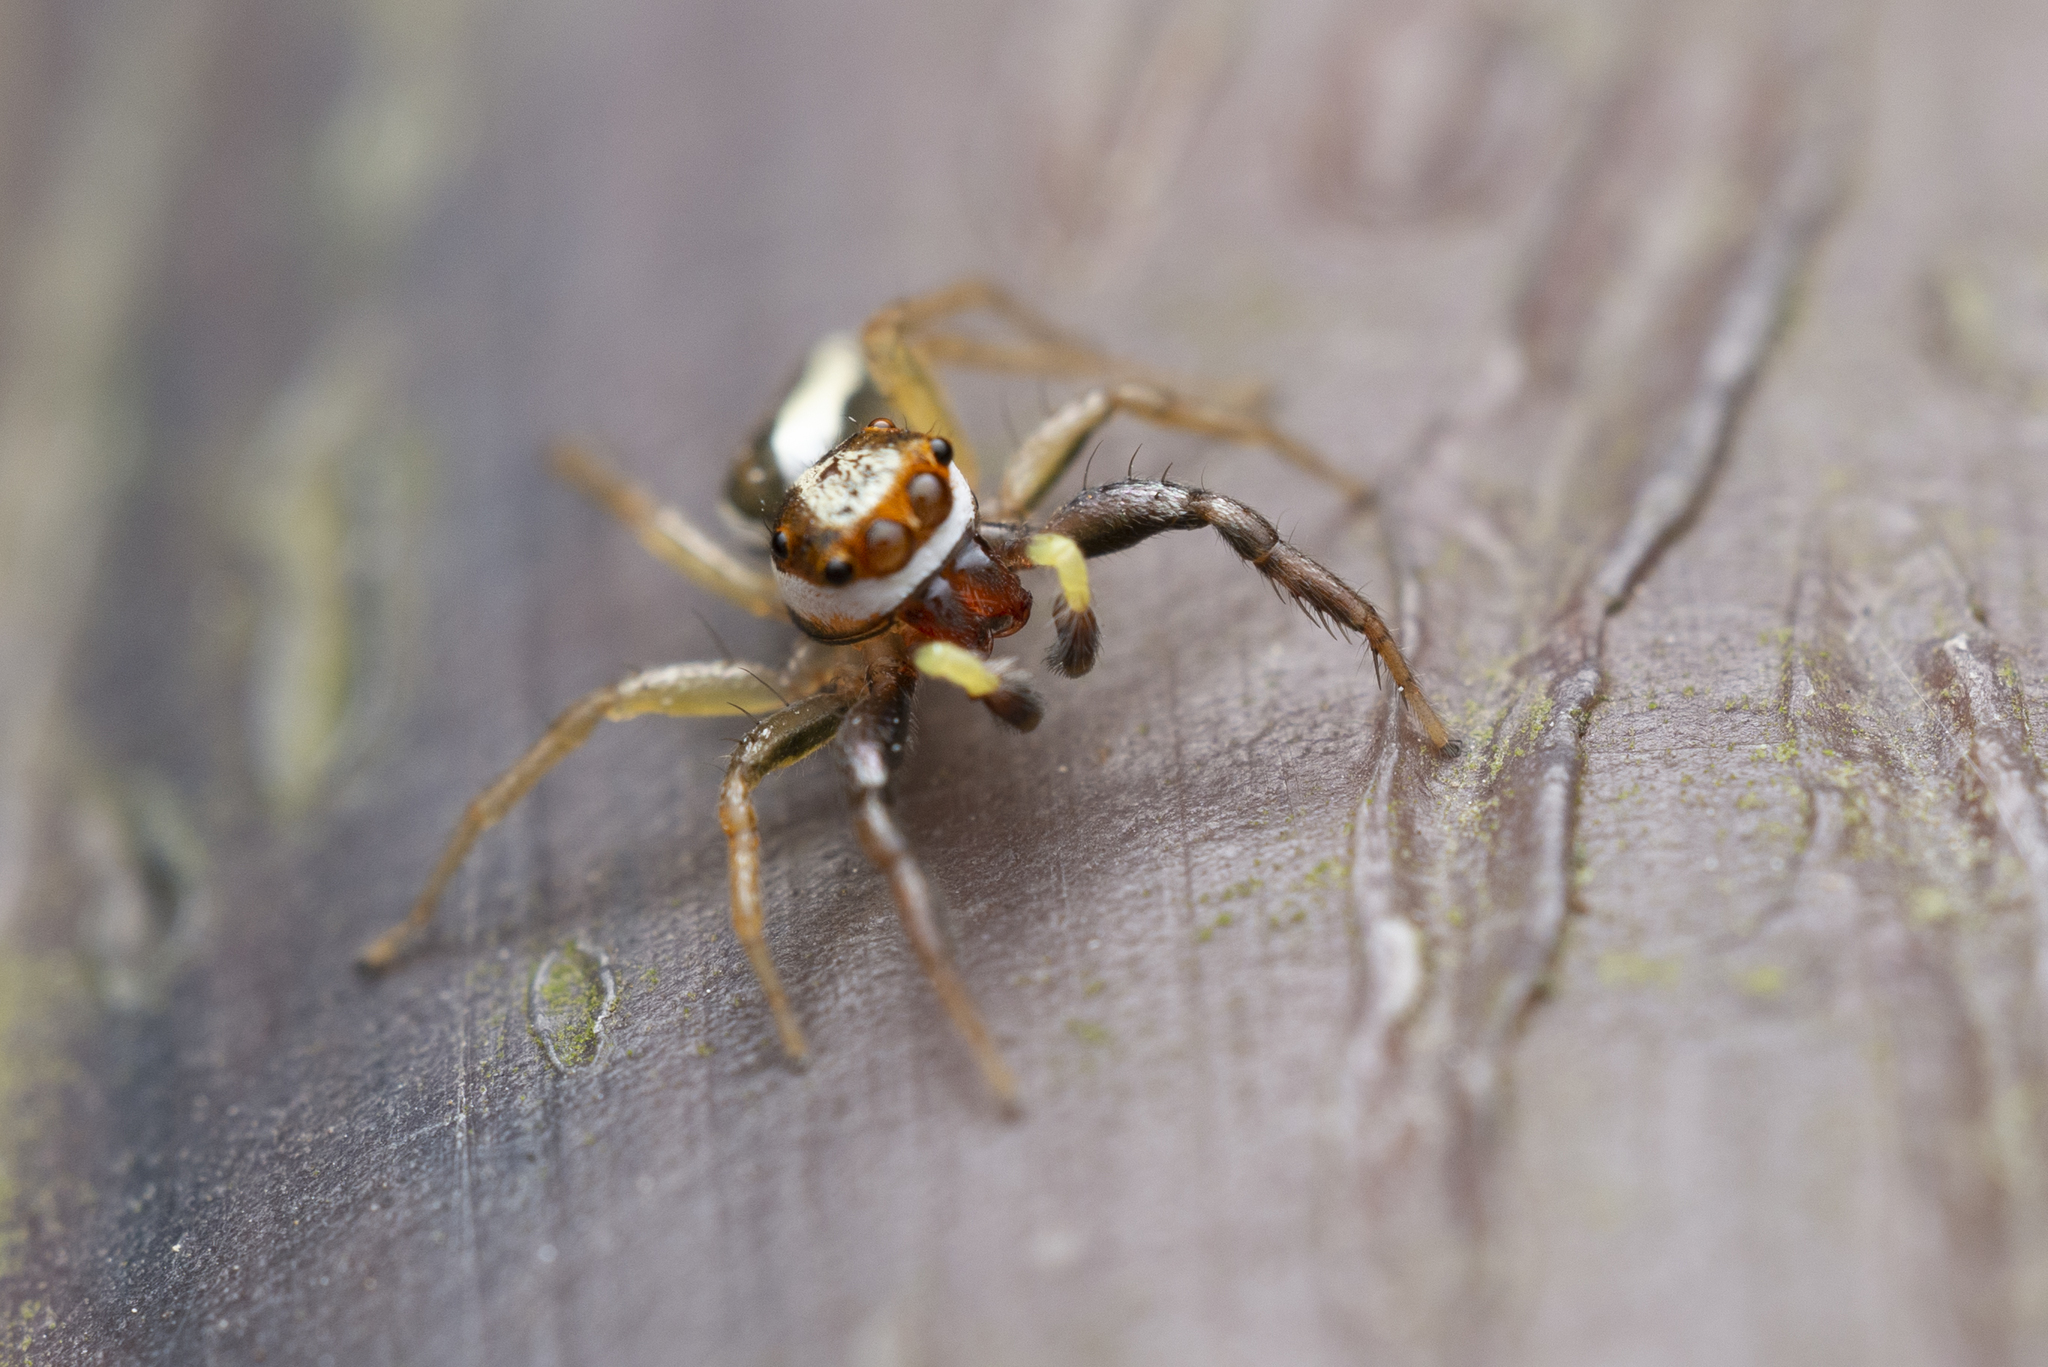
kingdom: Animalia
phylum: Arthropoda
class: Arachnida
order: Araneae
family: Salticidae
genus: Epocilla
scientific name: Epocilla blairei
